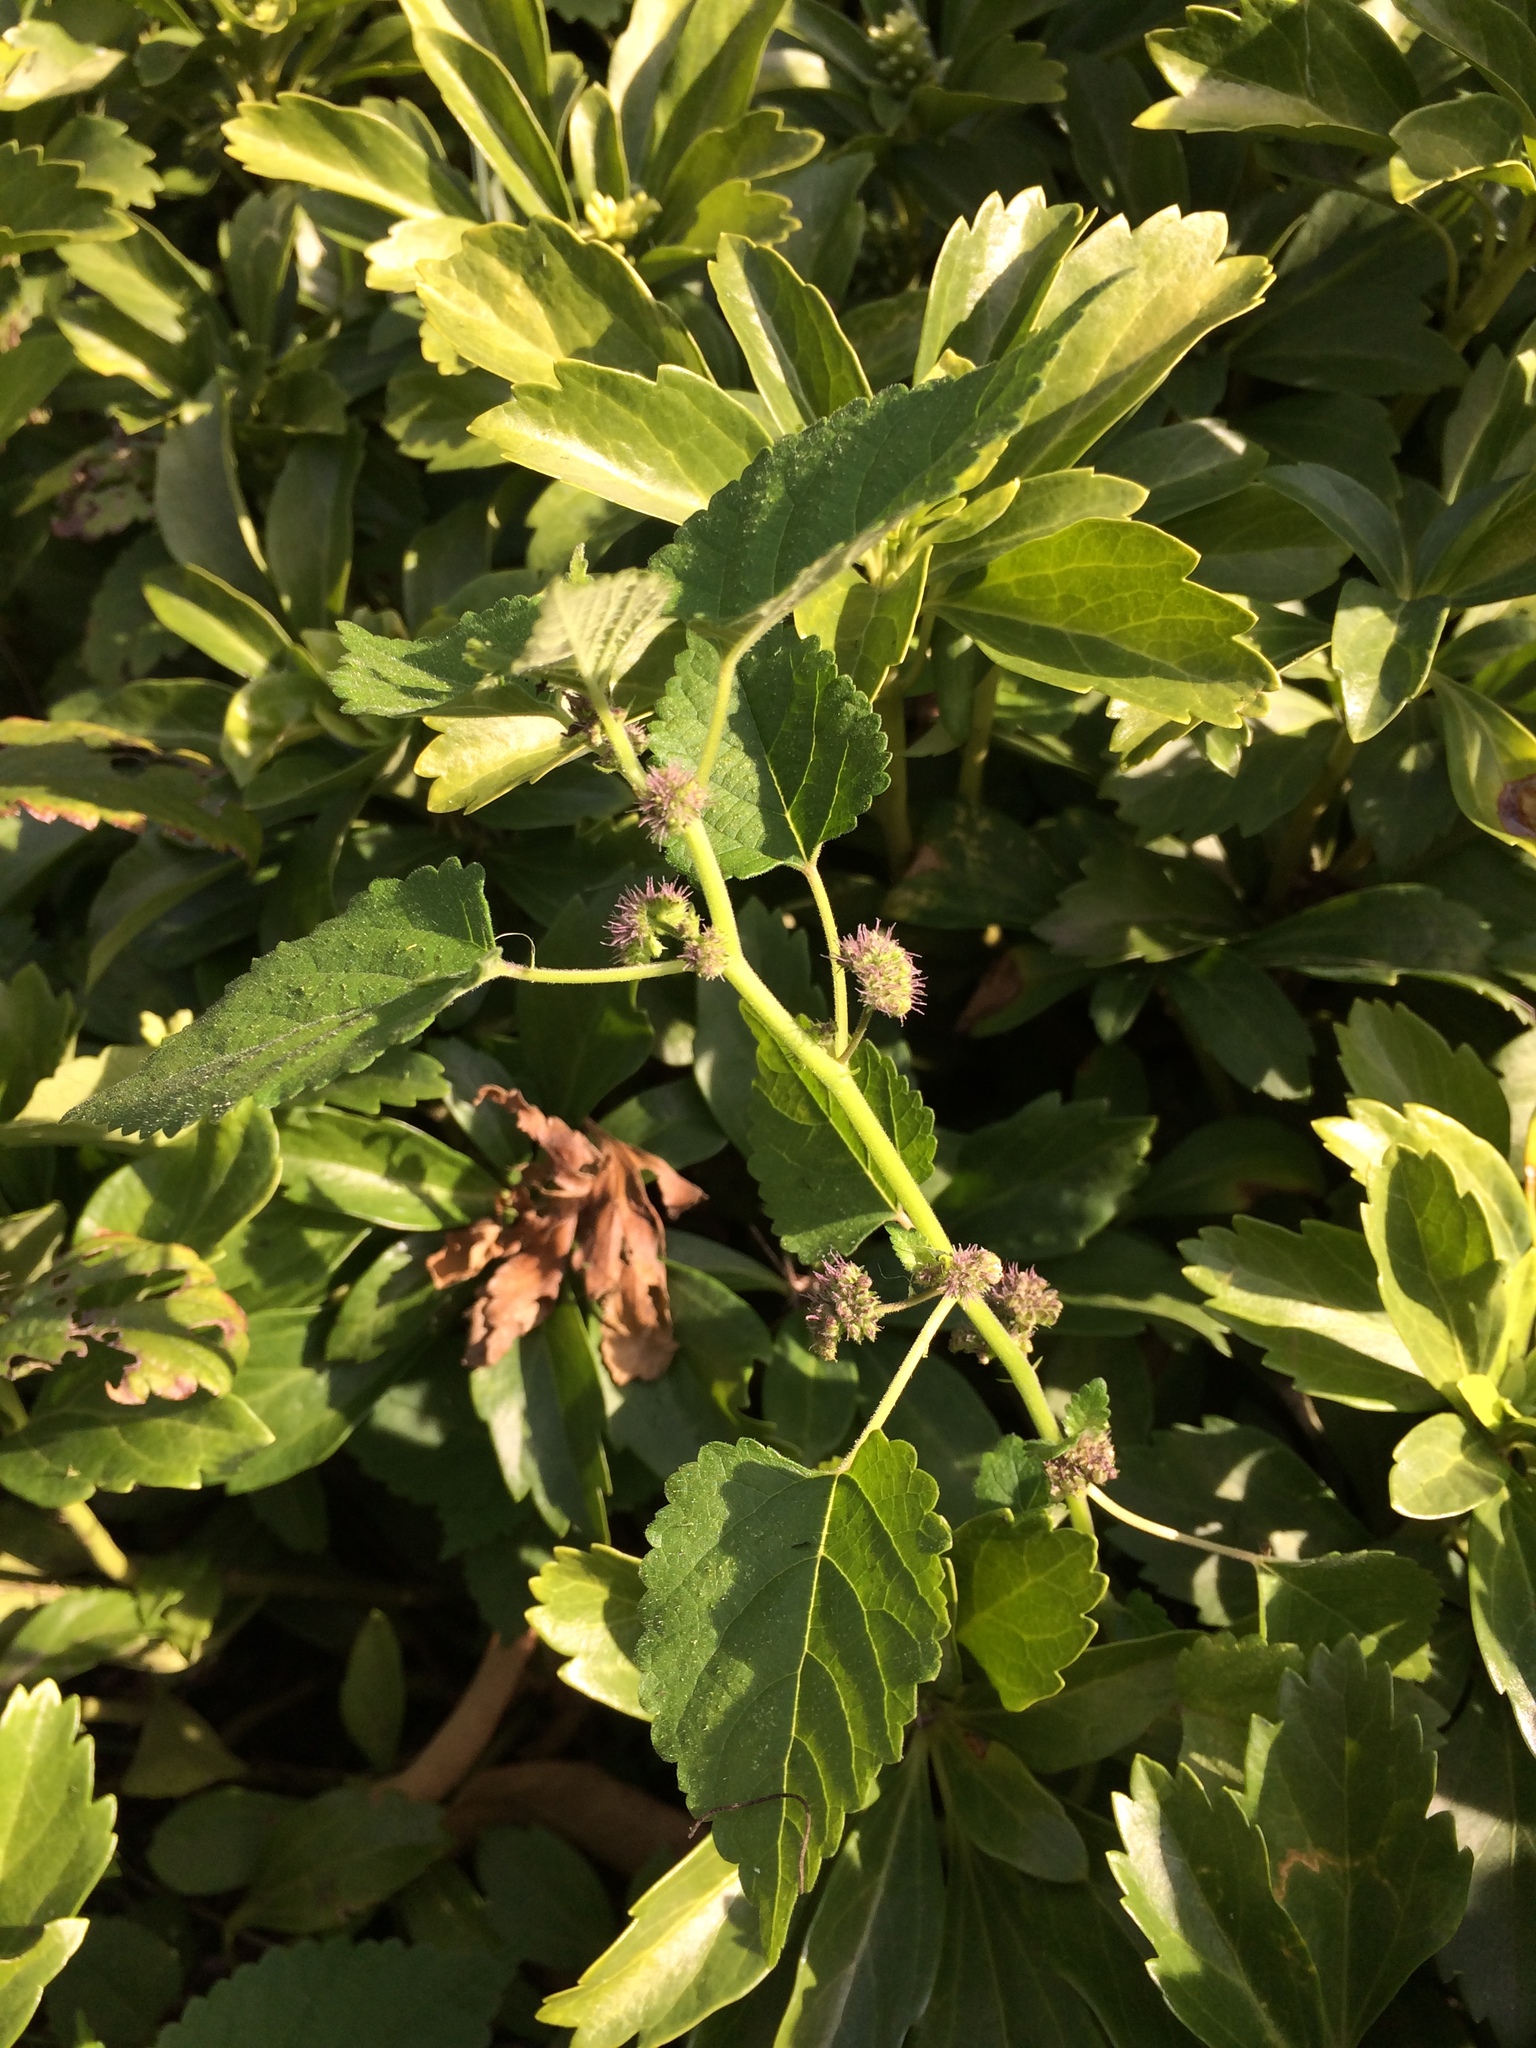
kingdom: Plantae
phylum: Tracheophyta
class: Magnoliopsida
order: Rosales
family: Moraceae
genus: Fatoua
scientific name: Fatoua villosa
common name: Hairy crabweed
